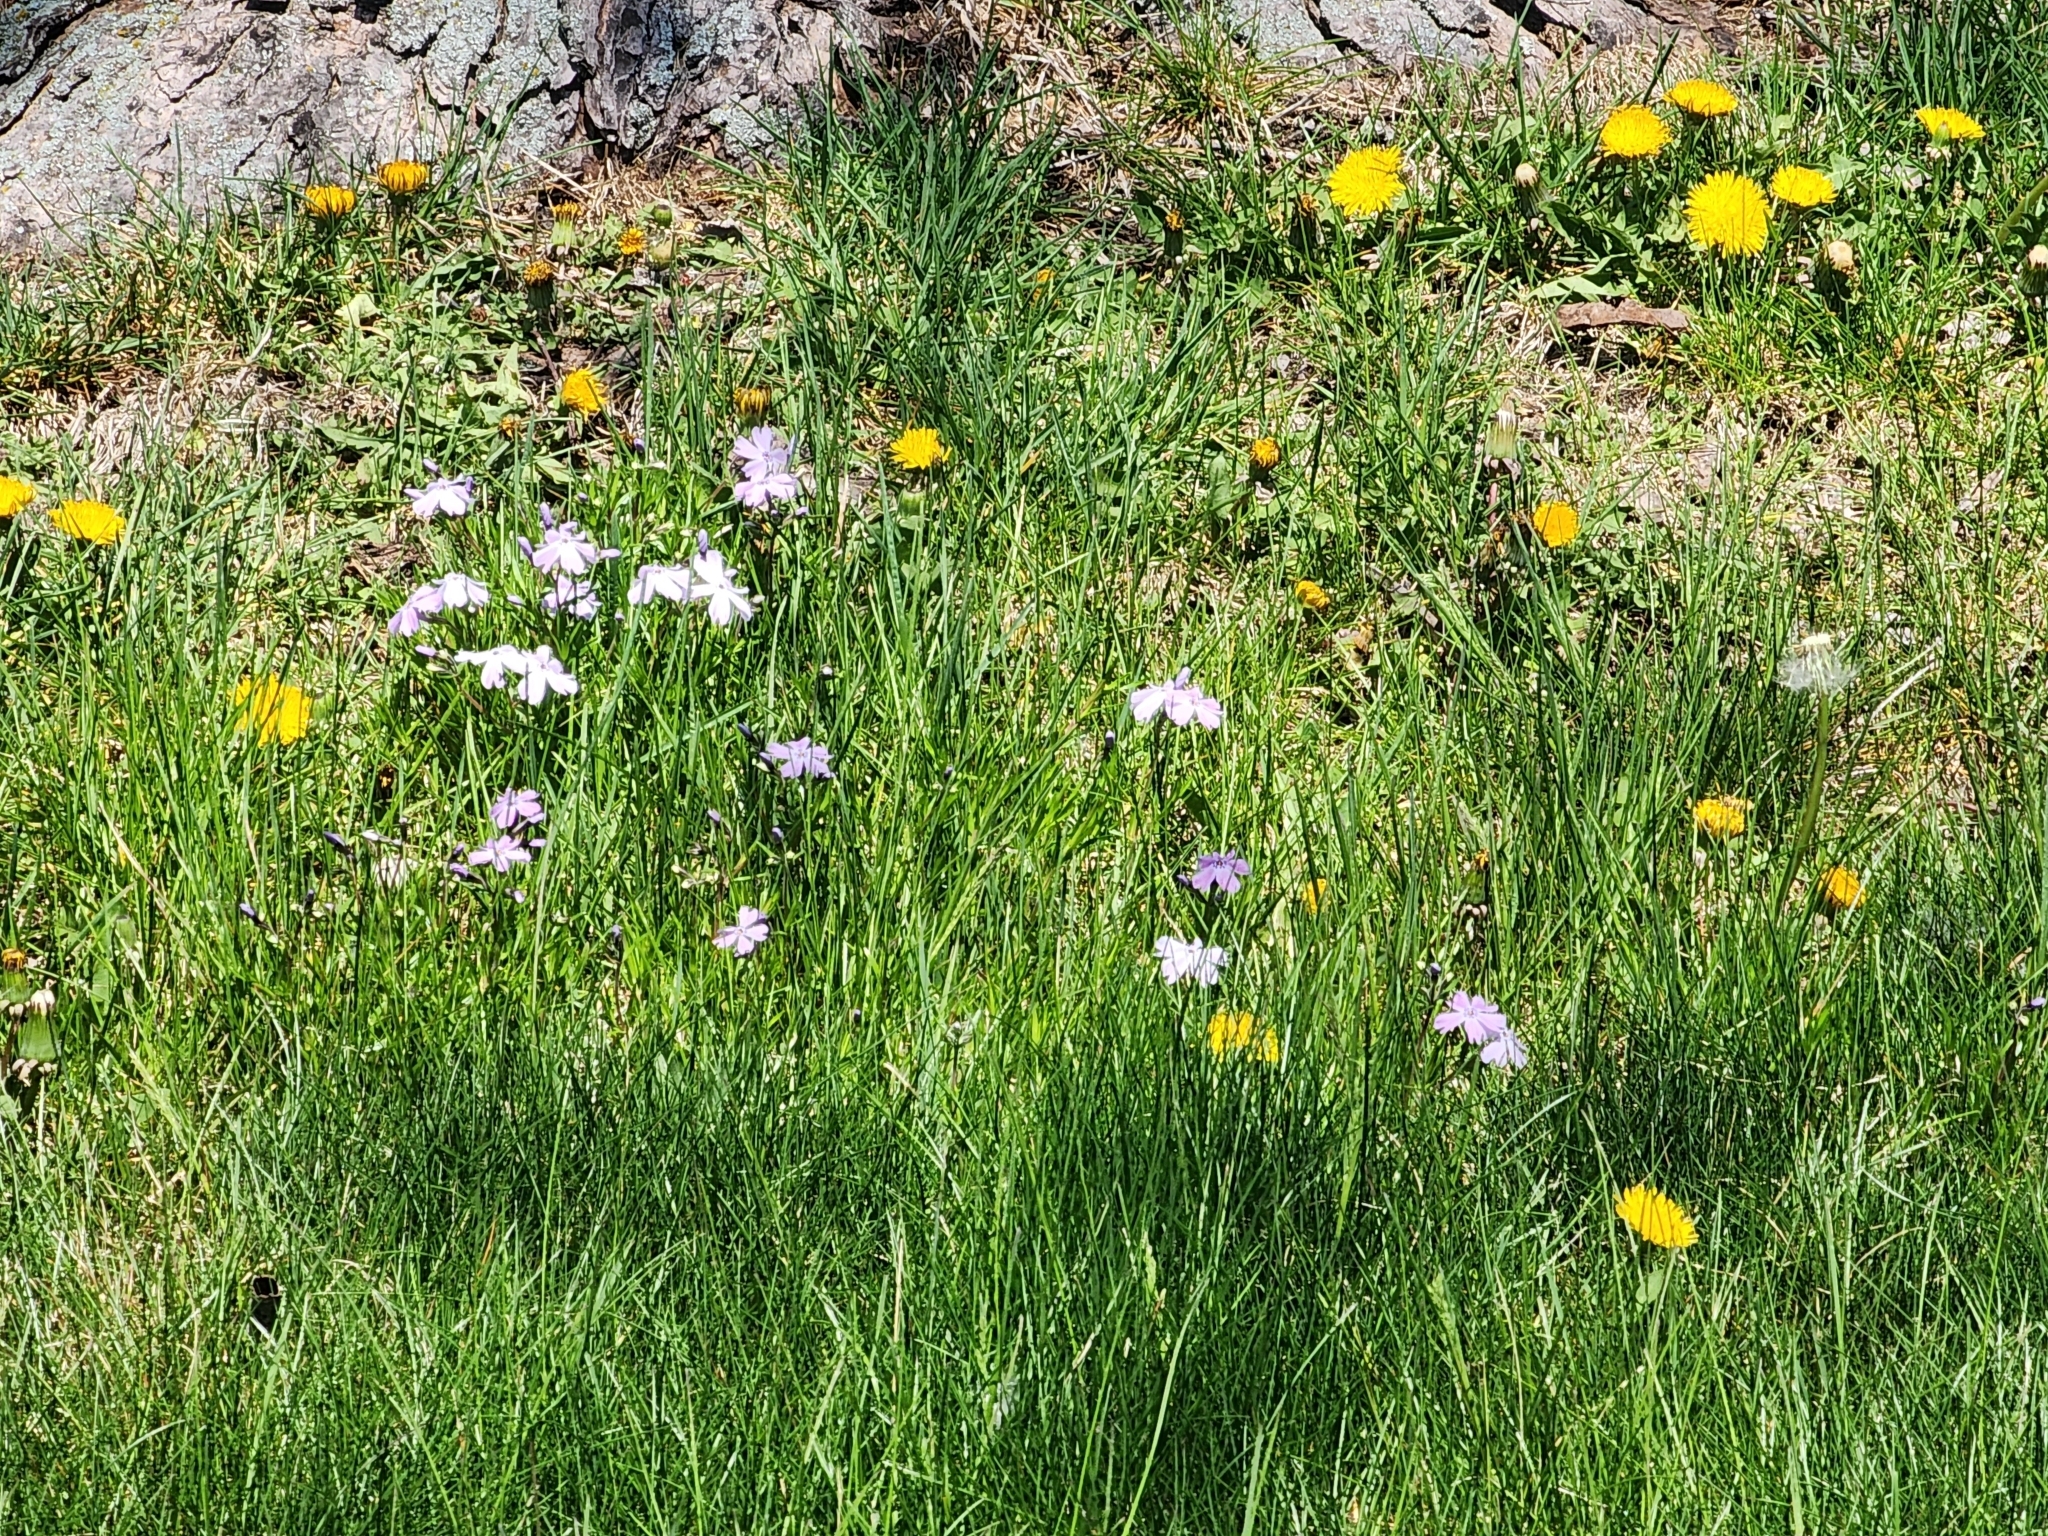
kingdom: Plantae
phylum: Tracheophyta
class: Magnoliopsida
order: Ericales
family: Polemoniaceae
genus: Phlox
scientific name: Phlox subulata
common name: Moss phlox
